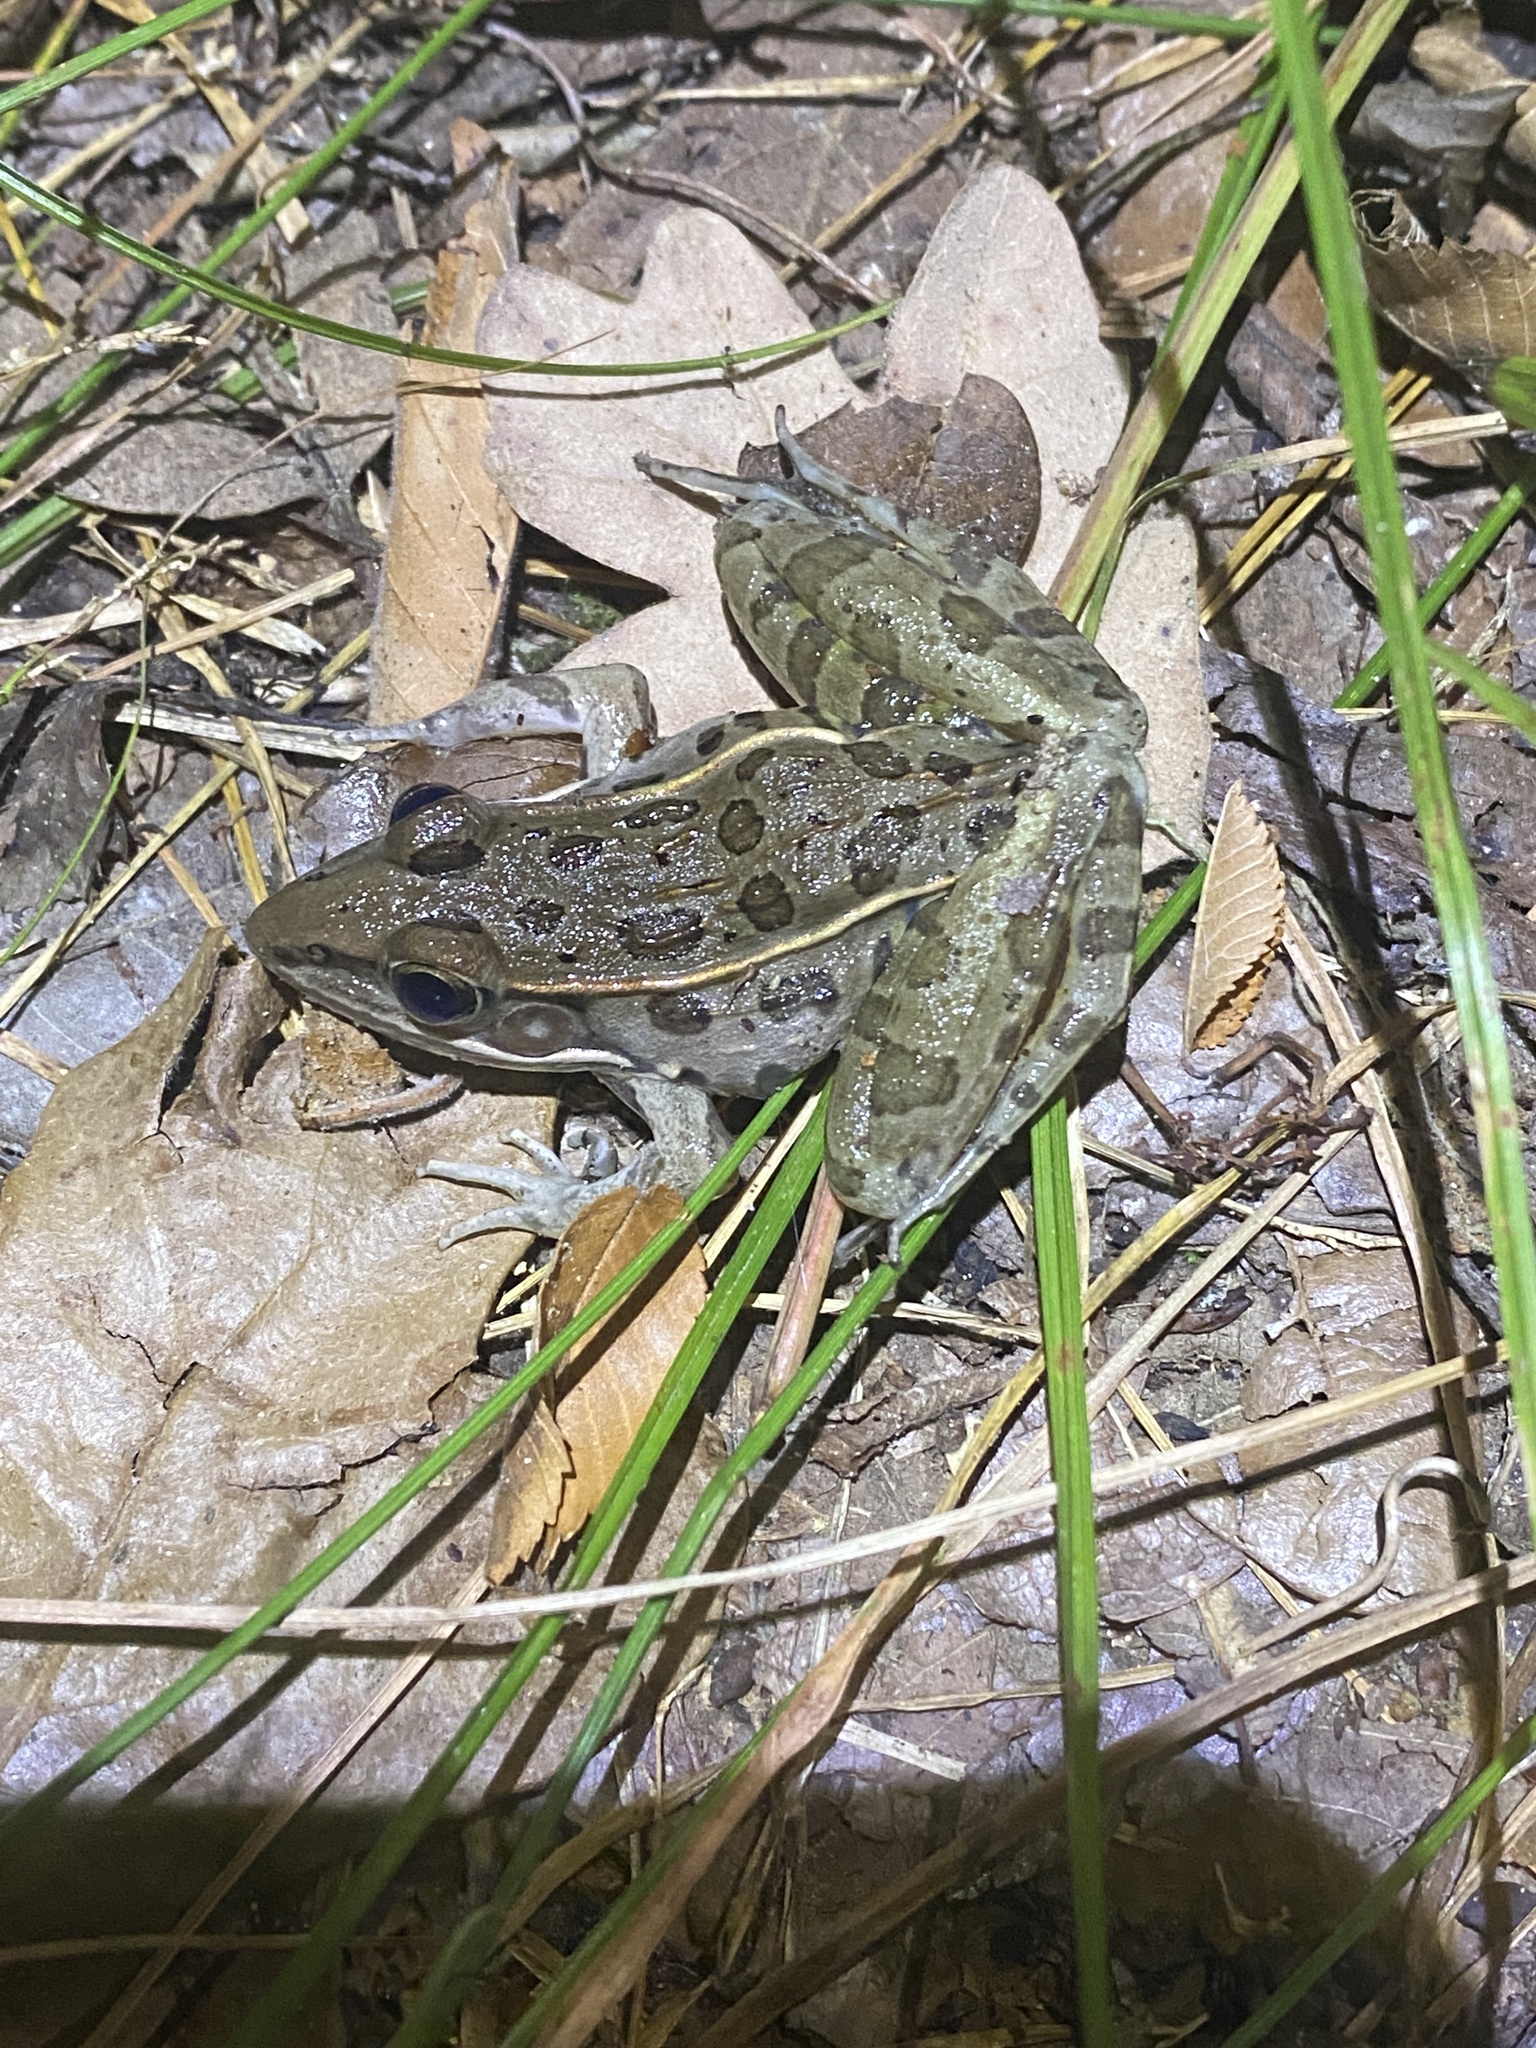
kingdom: Animalia
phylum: Chordata
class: Amphibia
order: Anura
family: Ranidae
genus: Lithobates
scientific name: Lithobates sphenocephalus
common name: Southern leopard frog
